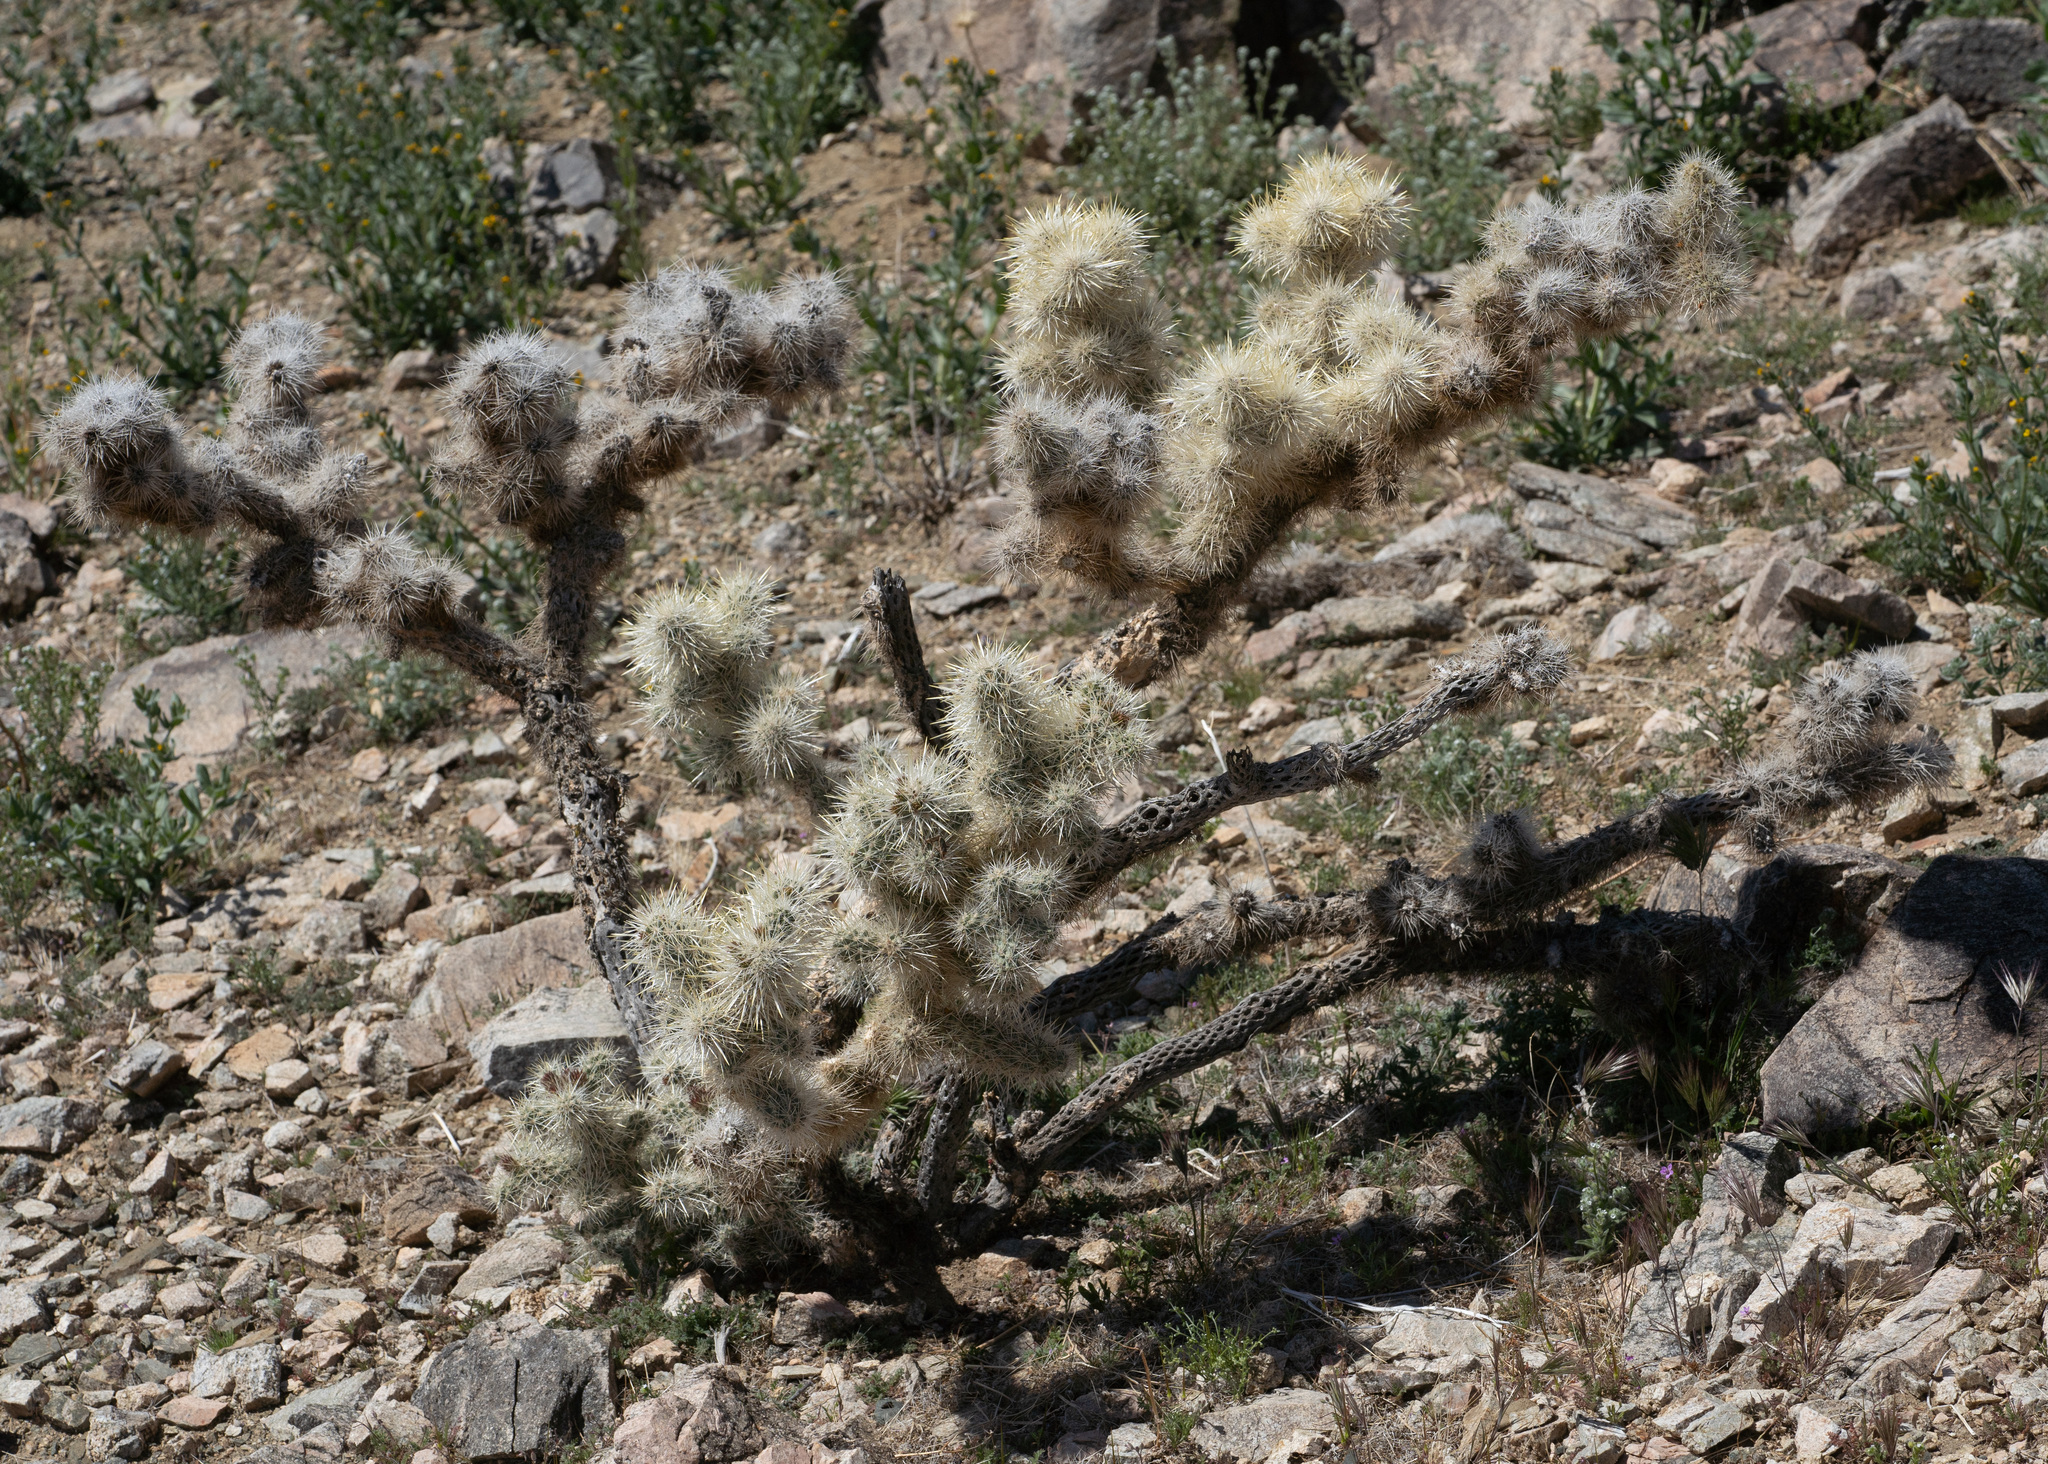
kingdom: Plantae
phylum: Tracheophyta
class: Magnoliopsida
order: Caryophyllales
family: Cactaceae
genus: Cylindropuntia
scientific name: Cylindropuntia echinocarpa
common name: Ground cholla
